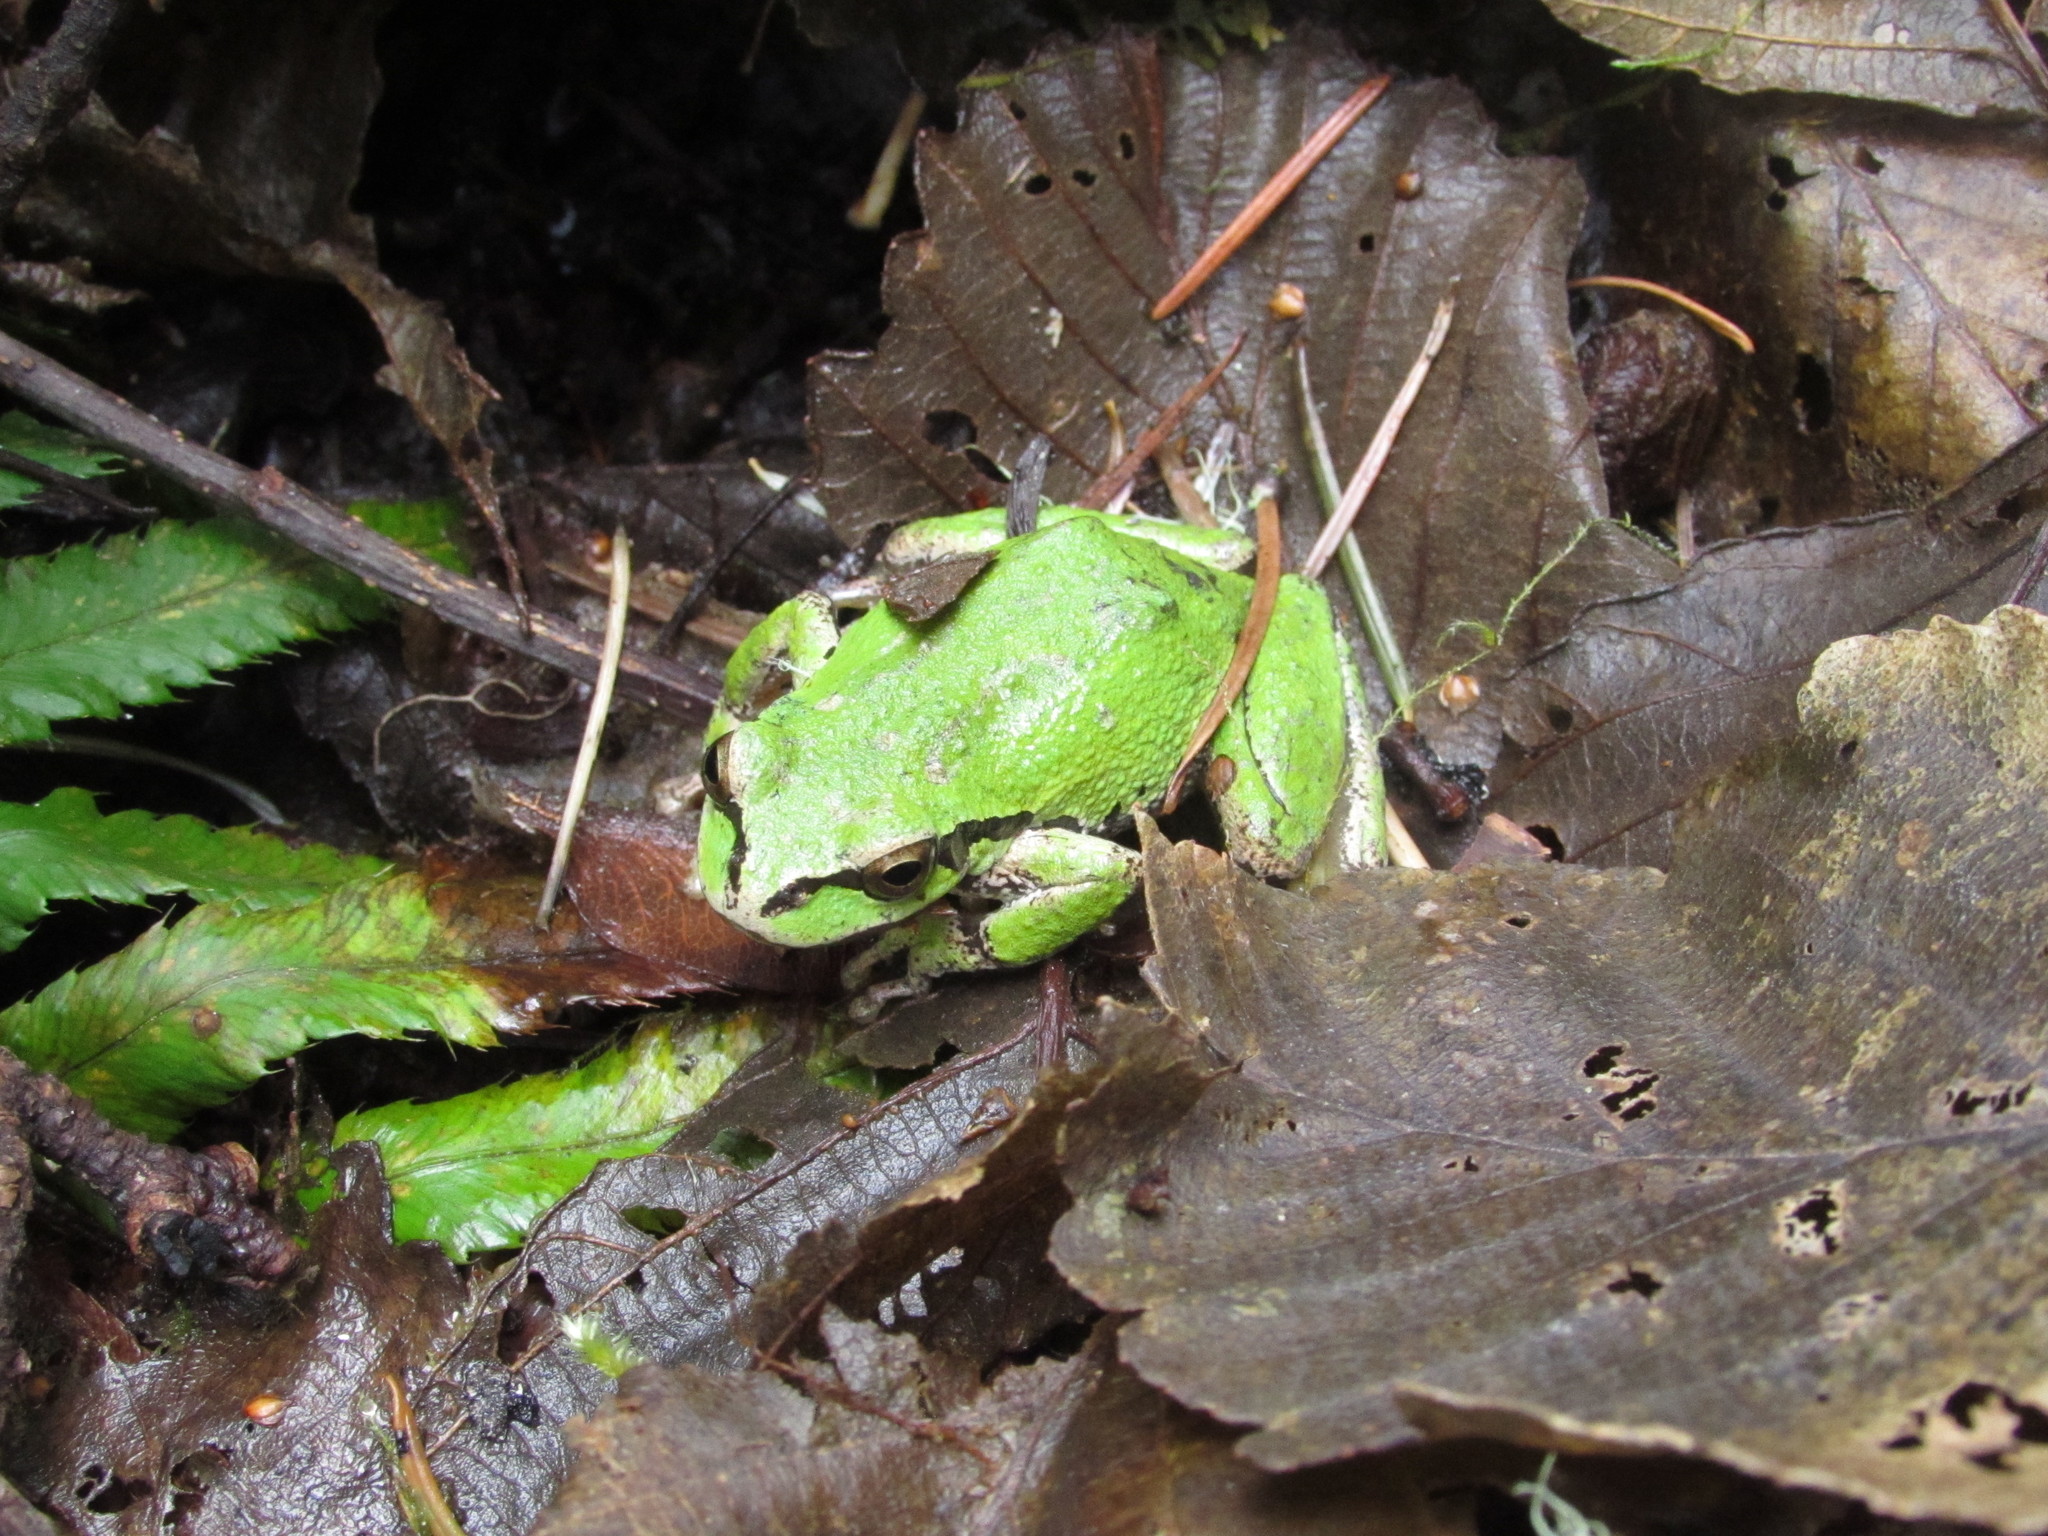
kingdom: Animalia
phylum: Chordata
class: Amphibia
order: Anura
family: Hylidae
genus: Pseudacris
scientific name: Pseudacris regilla
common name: Pacific chorus frog
